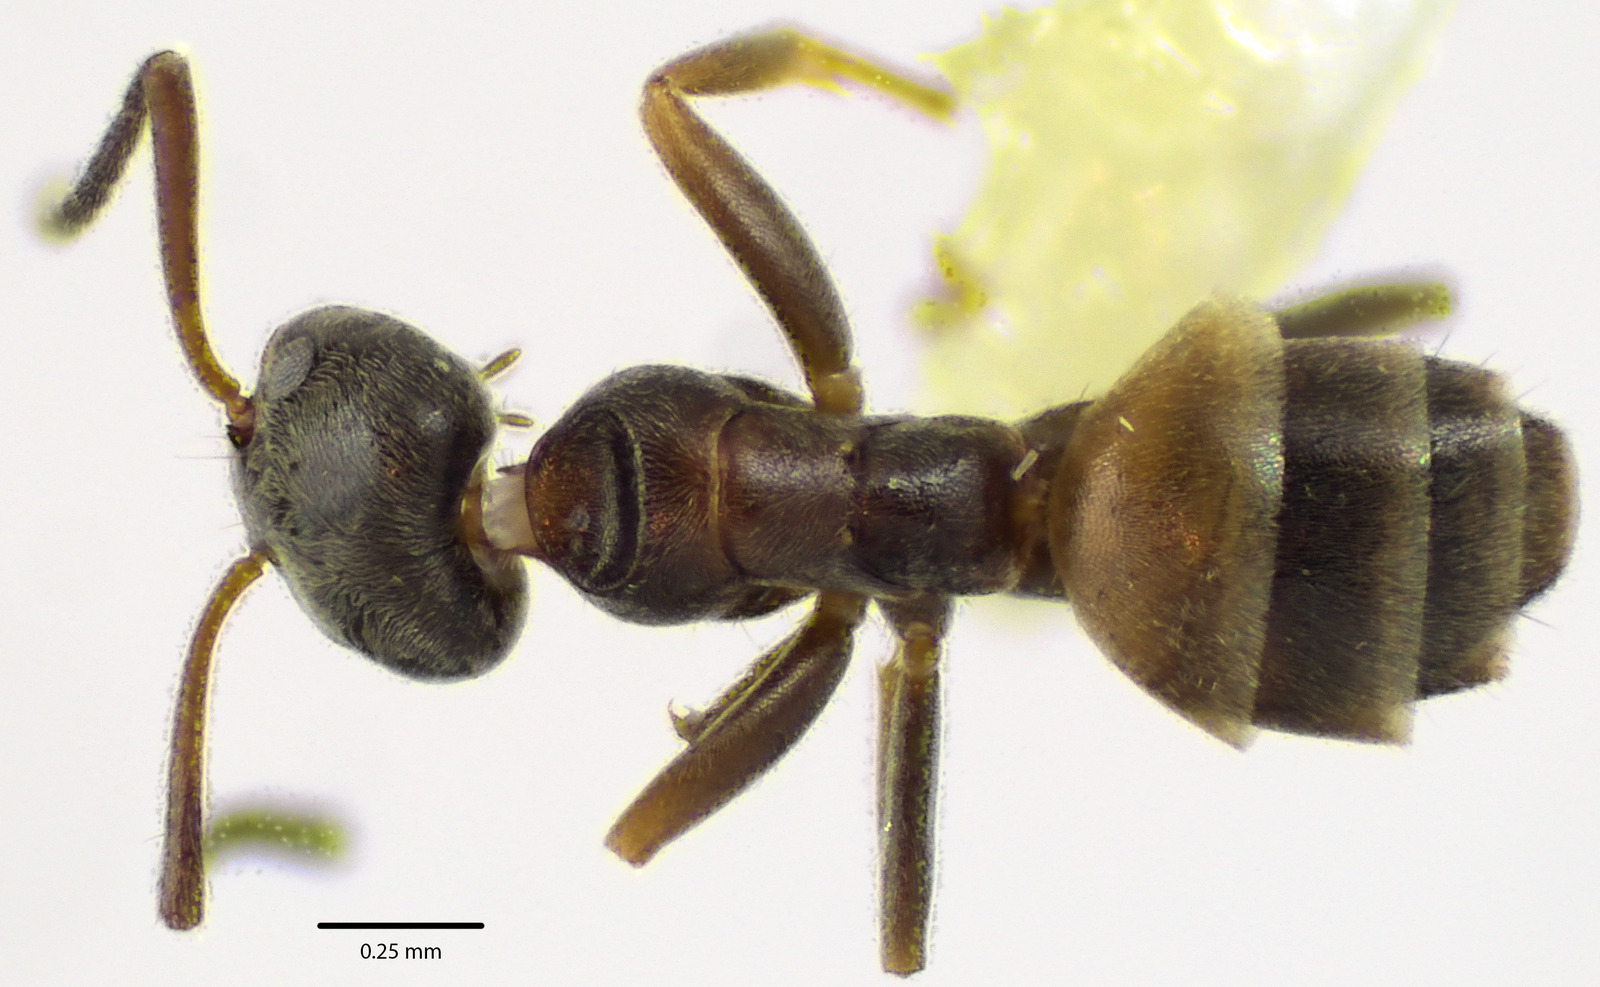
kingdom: Animalia
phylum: Arthropoda
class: Insecta
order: Hymenoptera
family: Formicidae
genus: Forelius
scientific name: Forelius pruinosus
